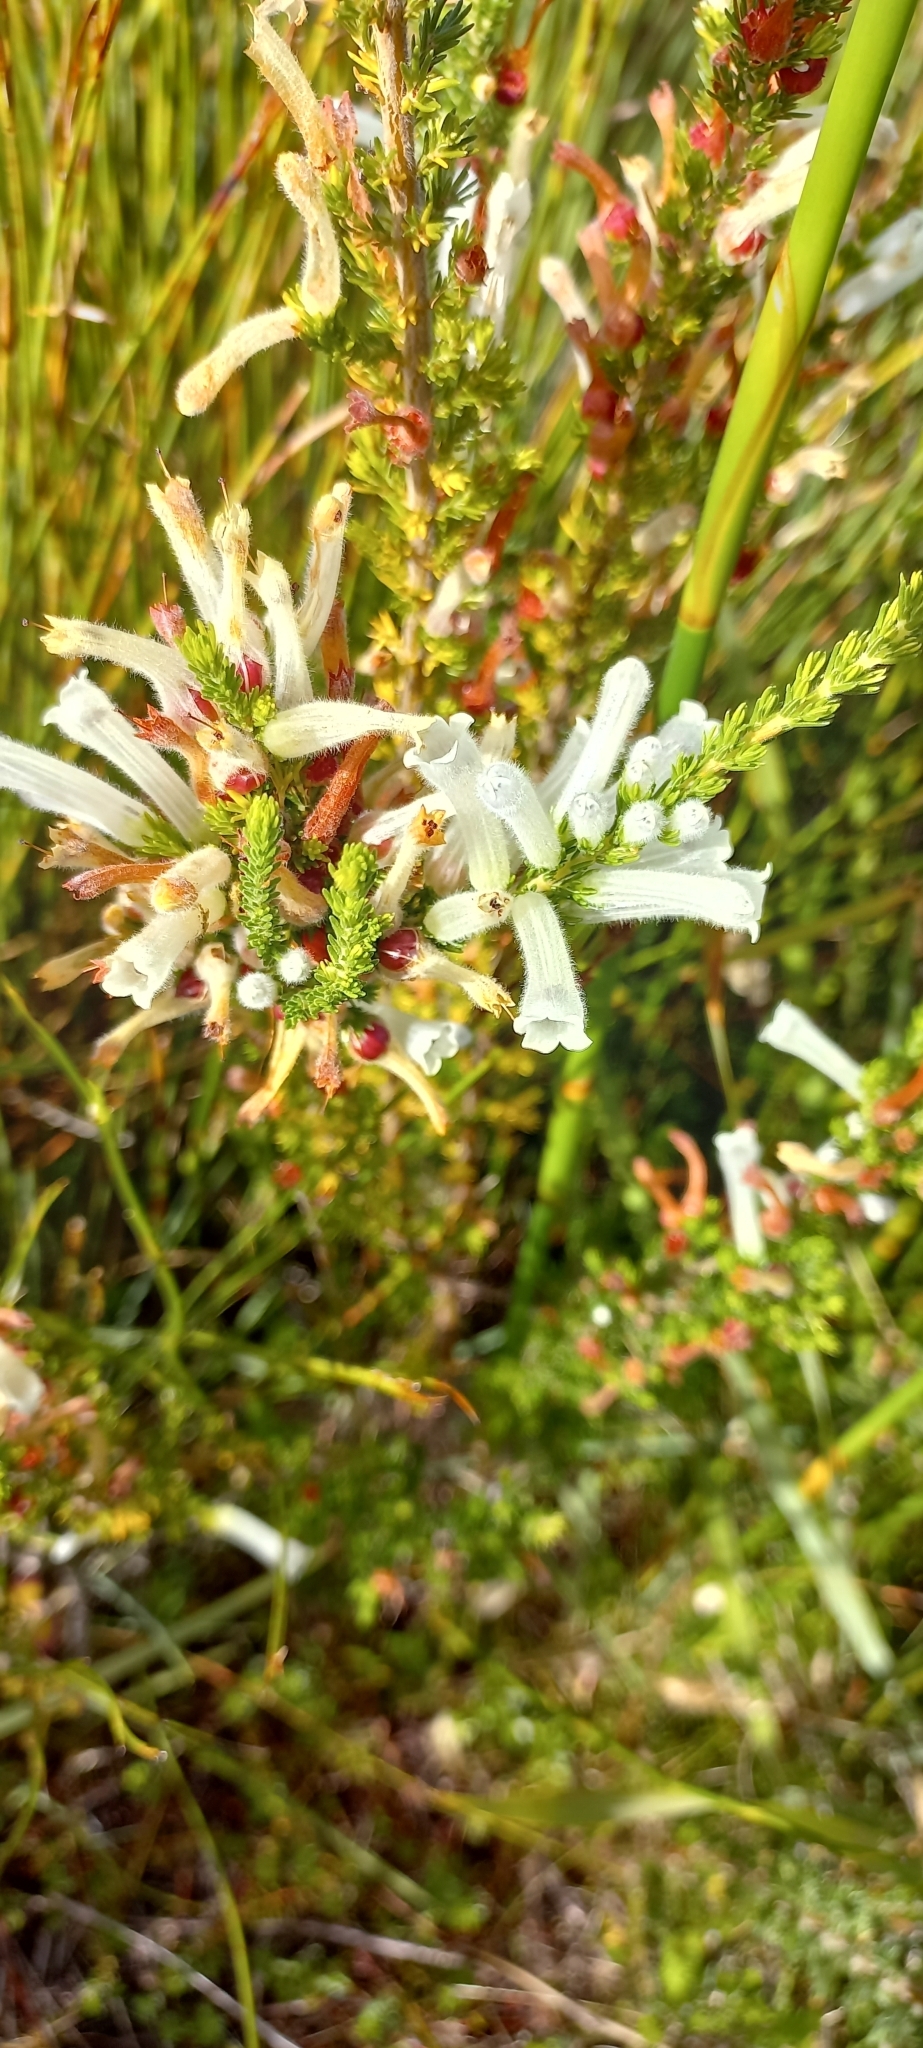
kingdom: Plantae
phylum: Tracheophyta
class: Magnoliopsida
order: Ericales
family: Ericaceae
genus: Erica
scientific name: Erica perspicua
